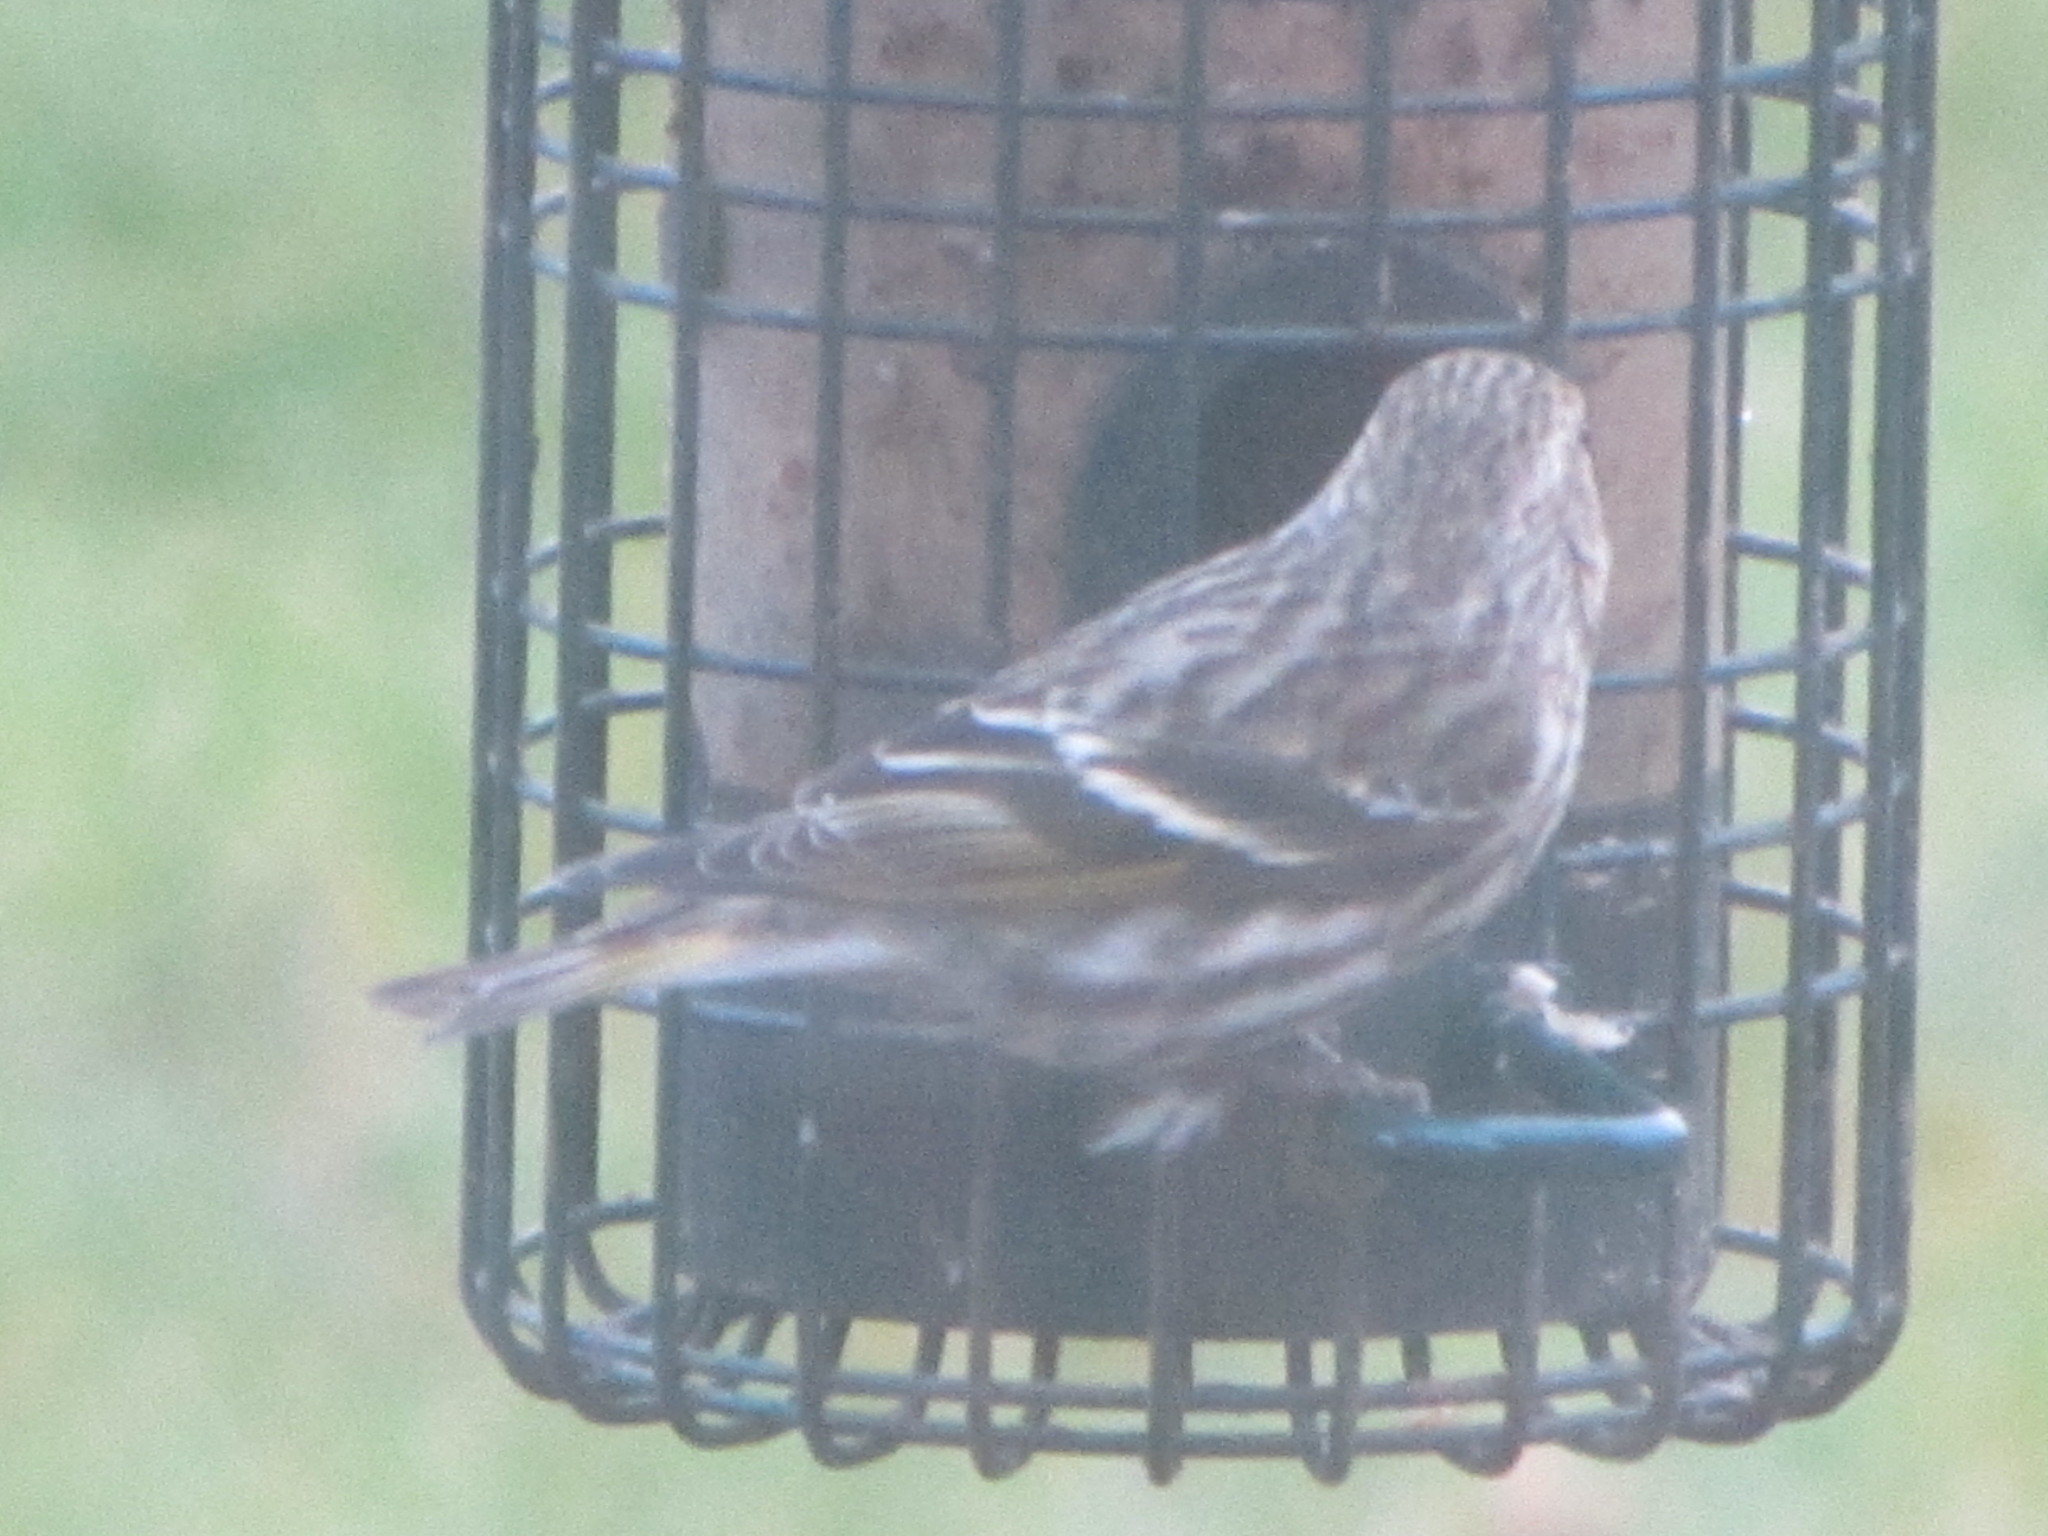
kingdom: Animalia
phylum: Chordata
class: Aves
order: Passeriformes
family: Fringillidae
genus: Spinus
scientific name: Spinus pinus
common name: Pine siskin
